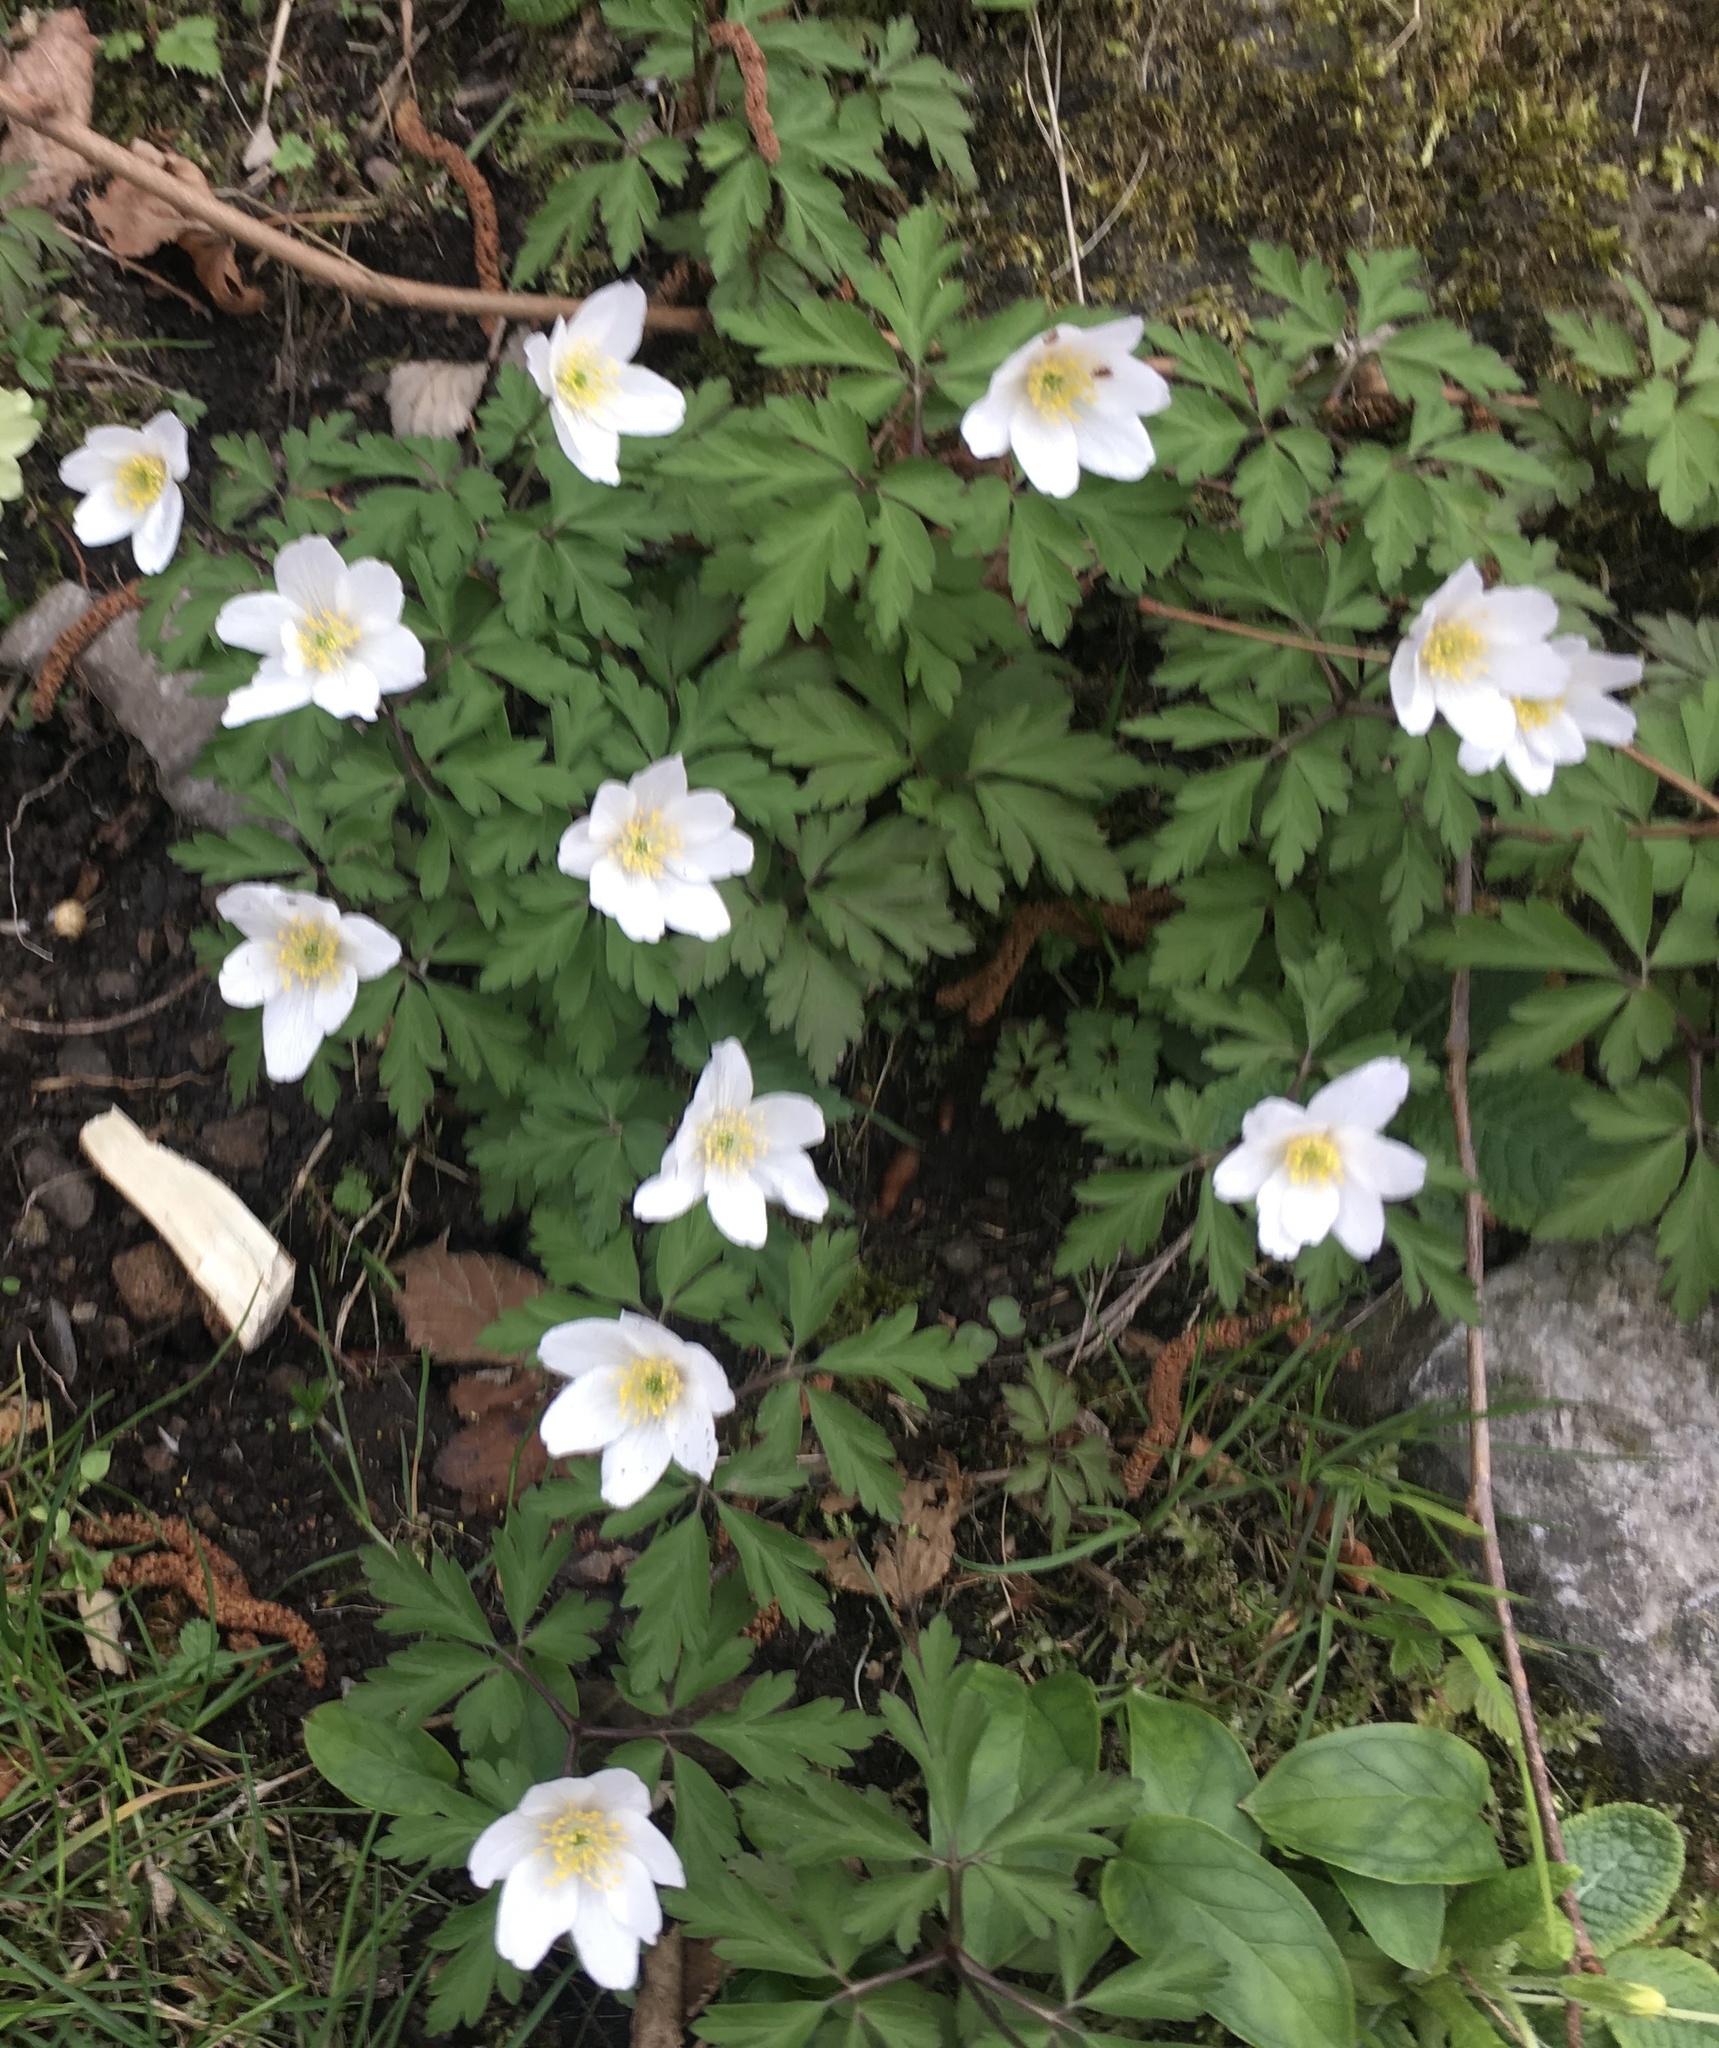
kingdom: Plantae
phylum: Tracheophyta
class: Magnoliopsida
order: Ranunculales
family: Ranunculaceae
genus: Anemone
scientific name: Anemone nemorosa
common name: Wood anemone
